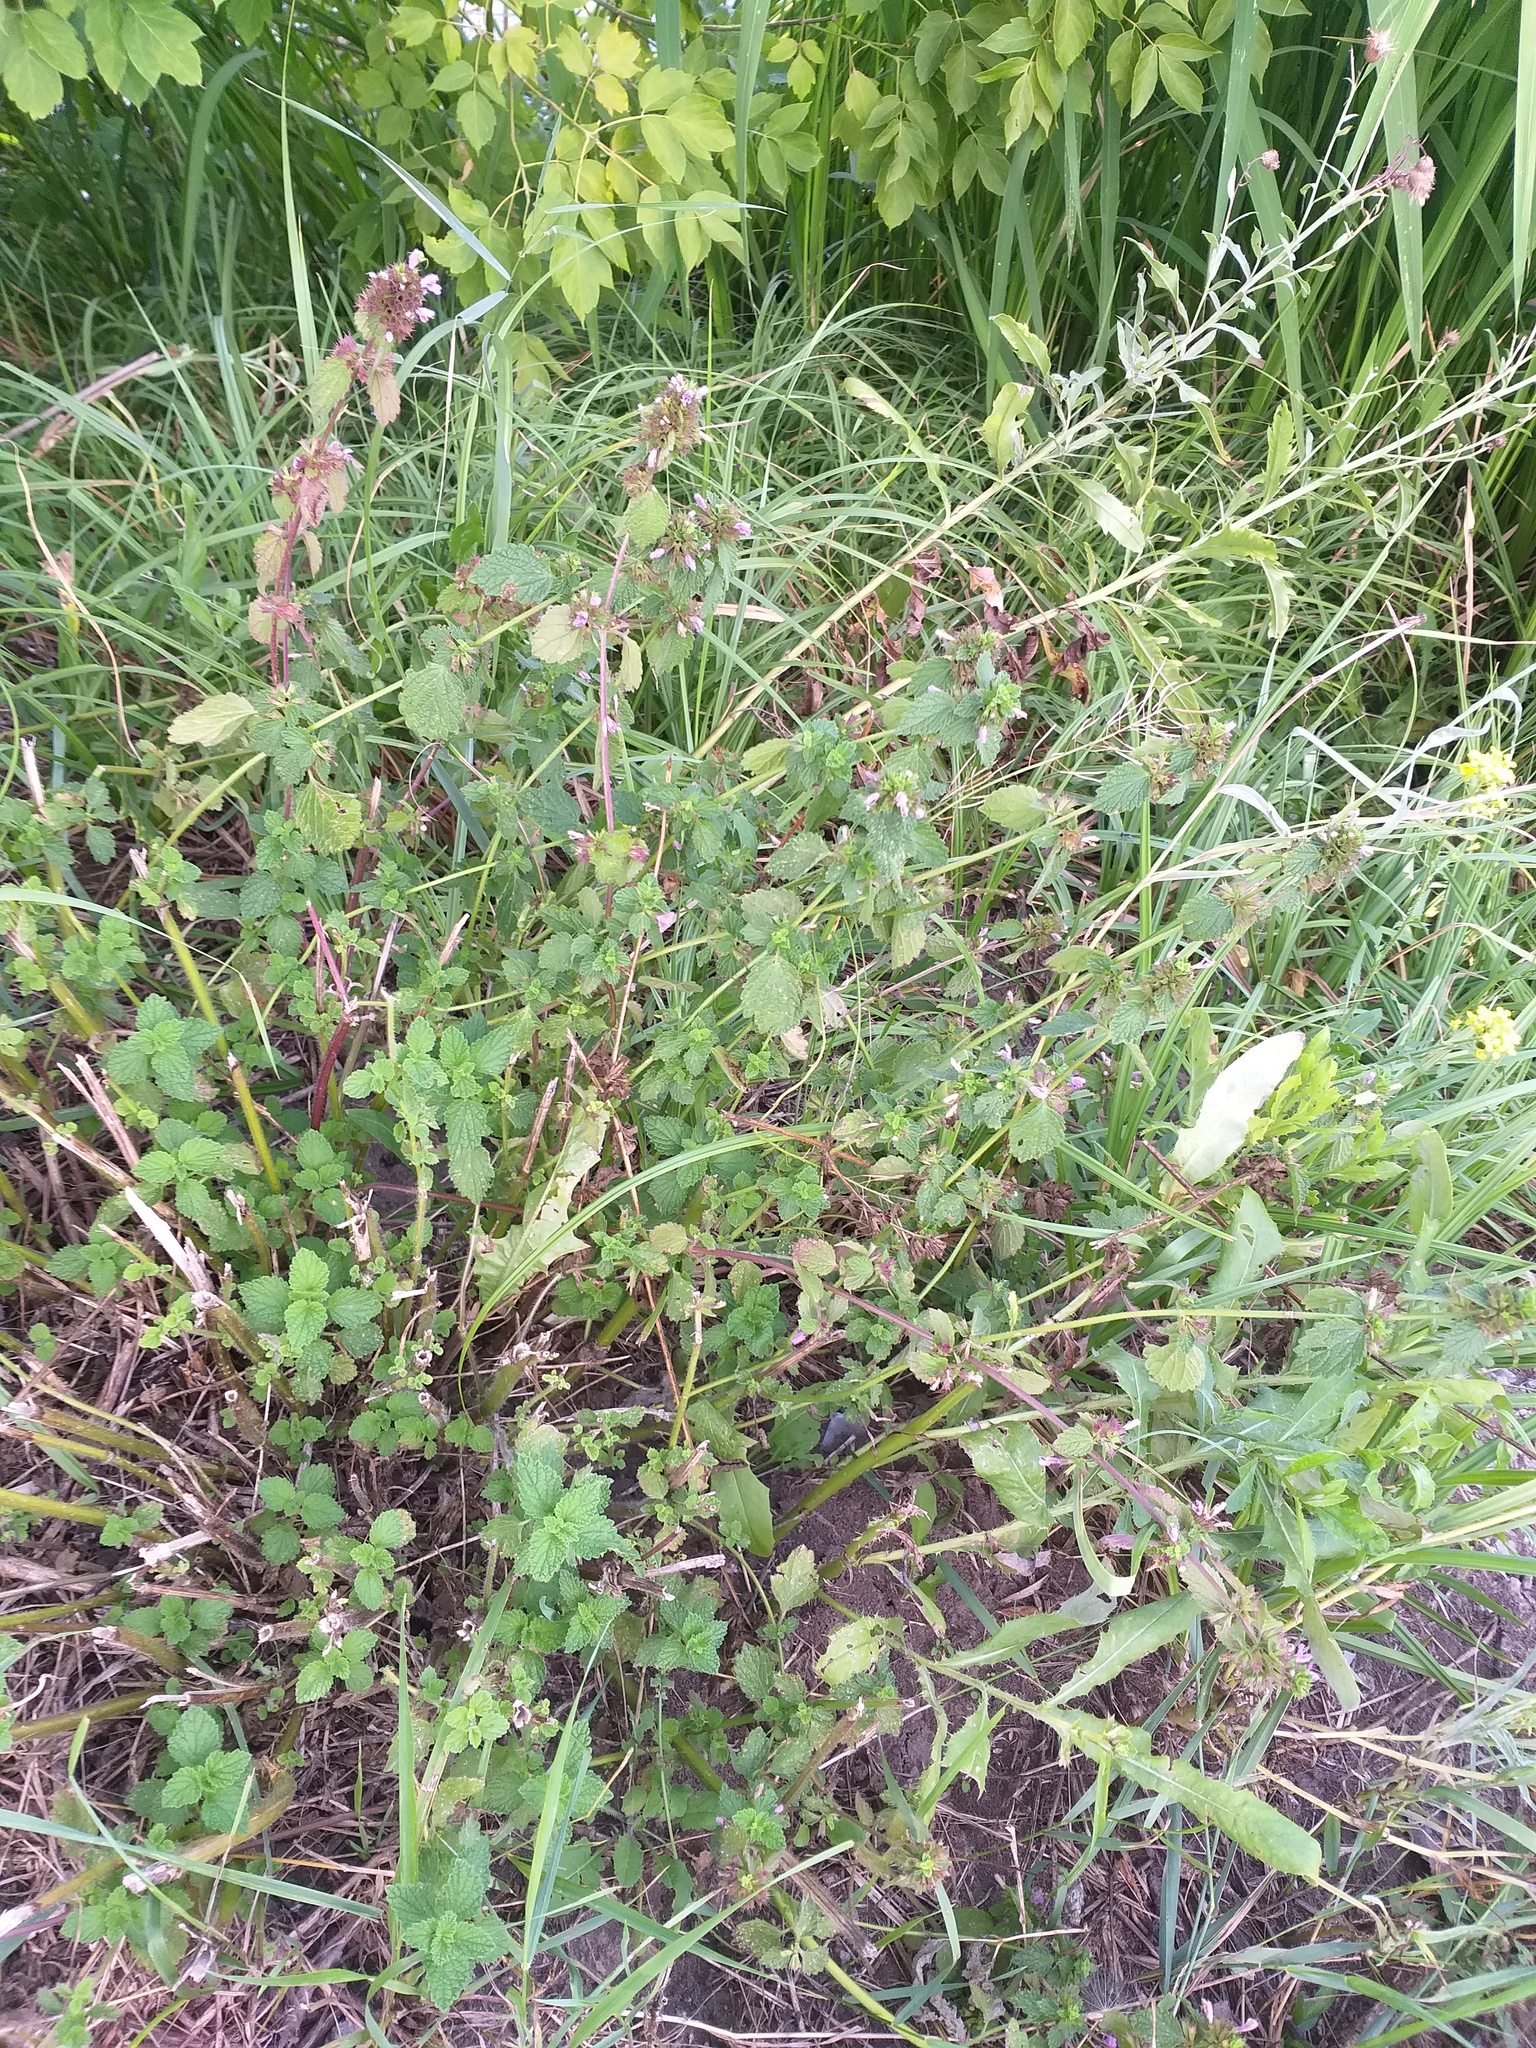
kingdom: Plantae
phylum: Tracheophyta
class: Magnoliopsida
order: Lamiales
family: Lamiaceae
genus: Ballota
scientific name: Ballota nigra
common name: Black horehound
